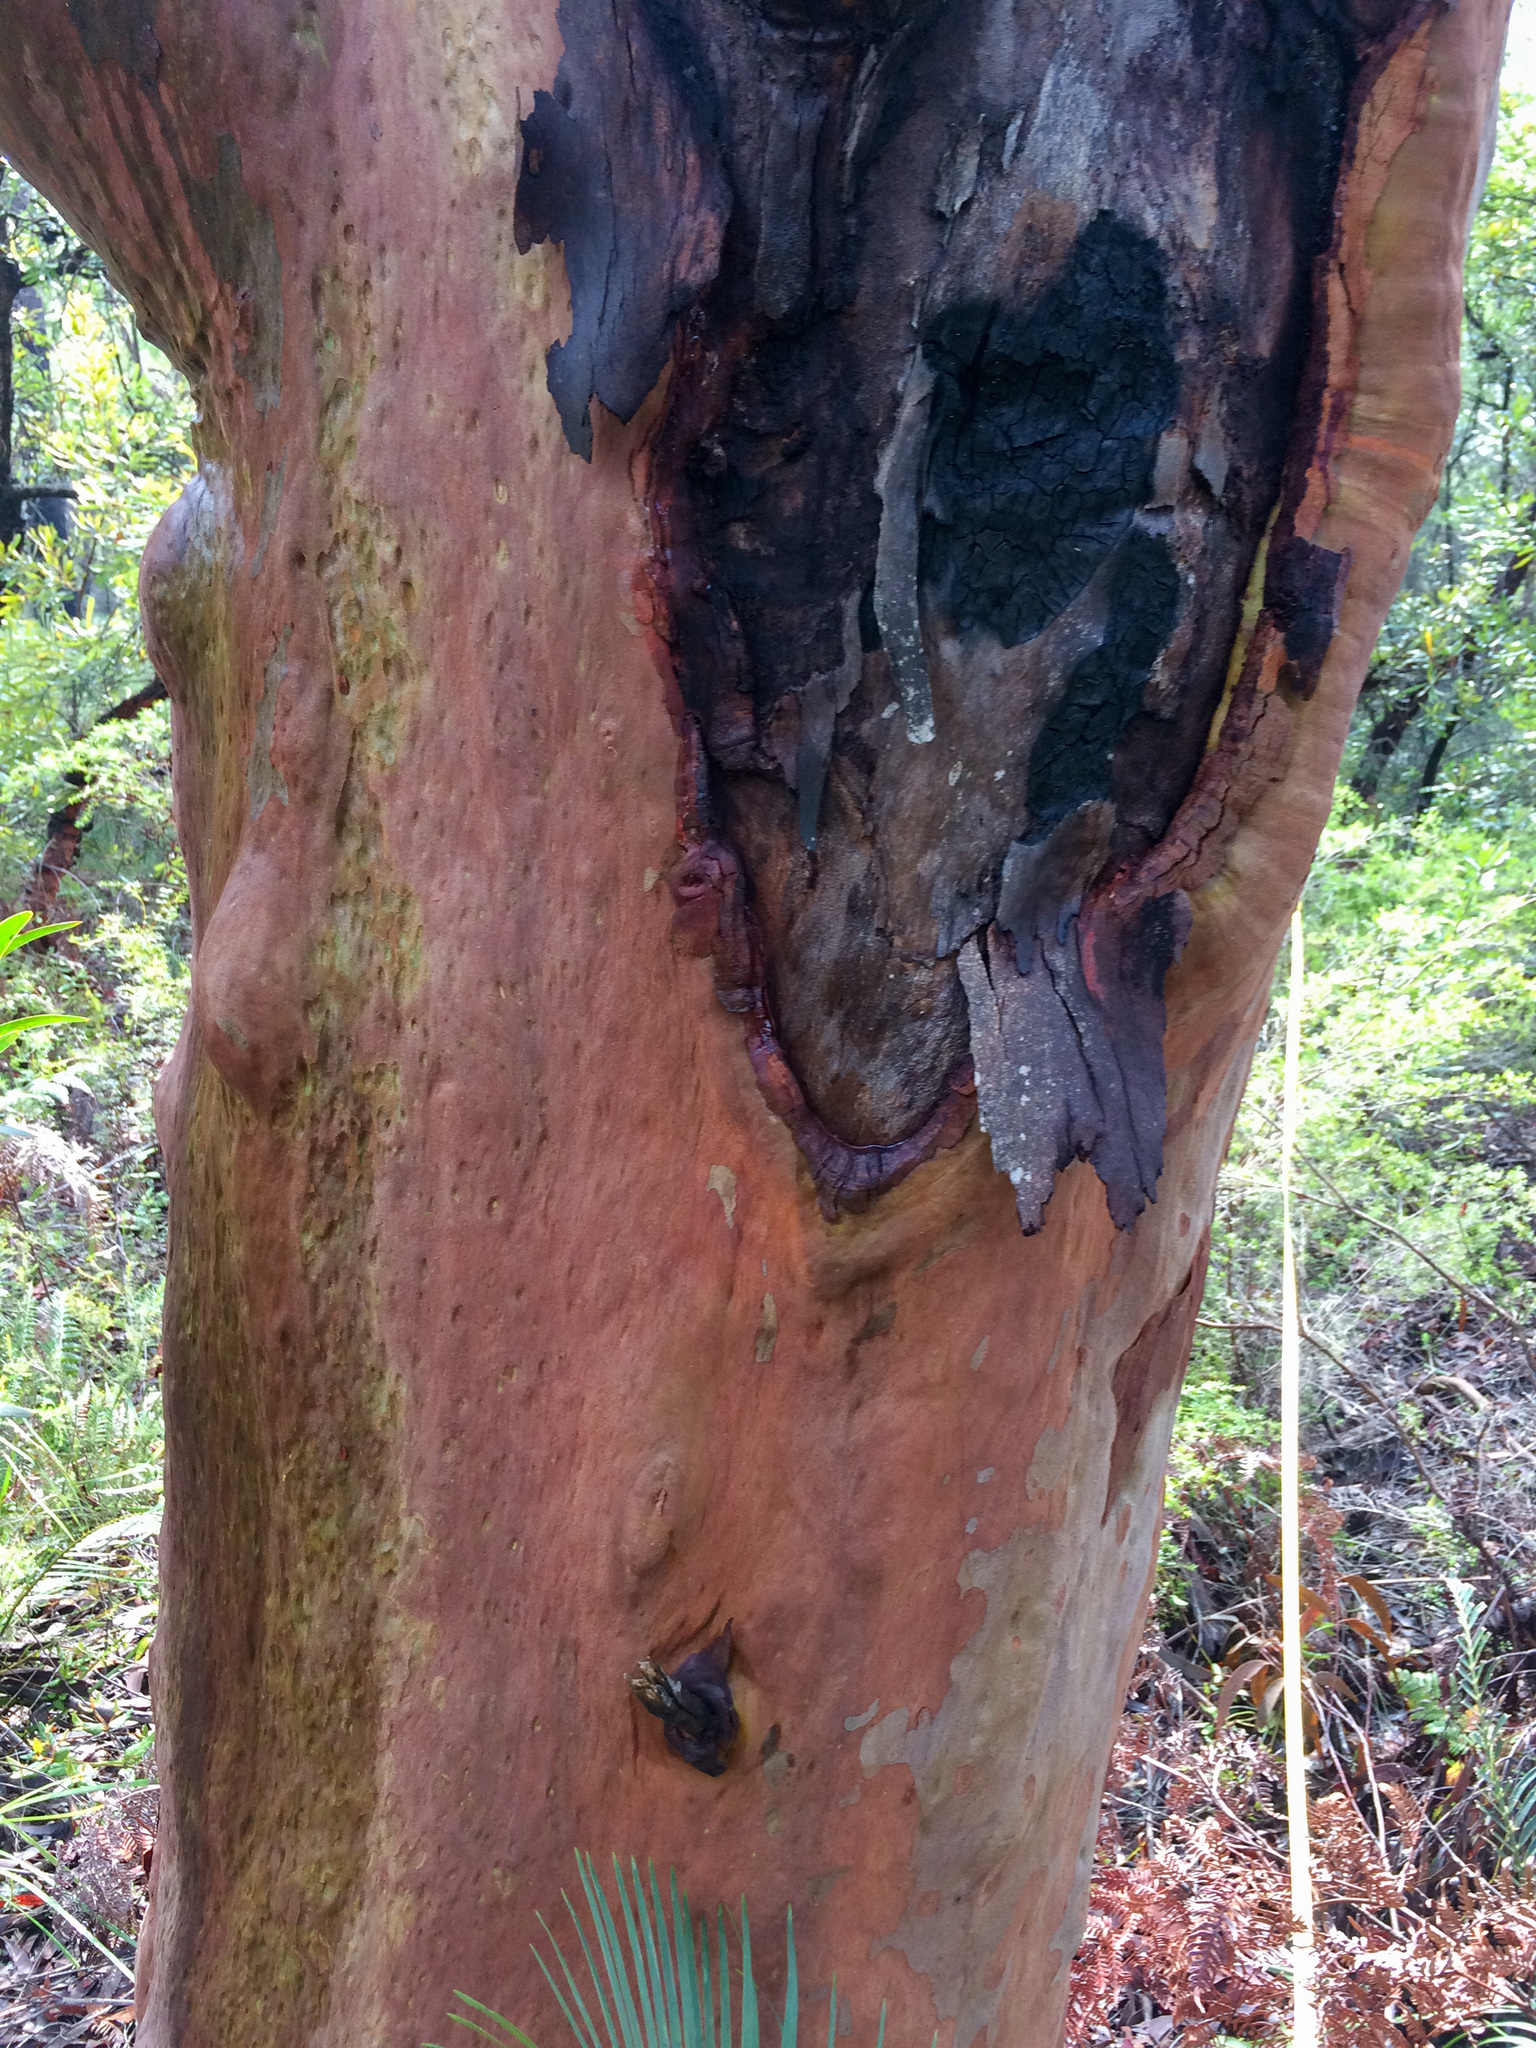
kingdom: Plantae
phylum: Tracheophyta
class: Magnoliopsida
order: Myrtales
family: Myrtaceae
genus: Angophora
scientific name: Angophora costata
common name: Gum myrtle
